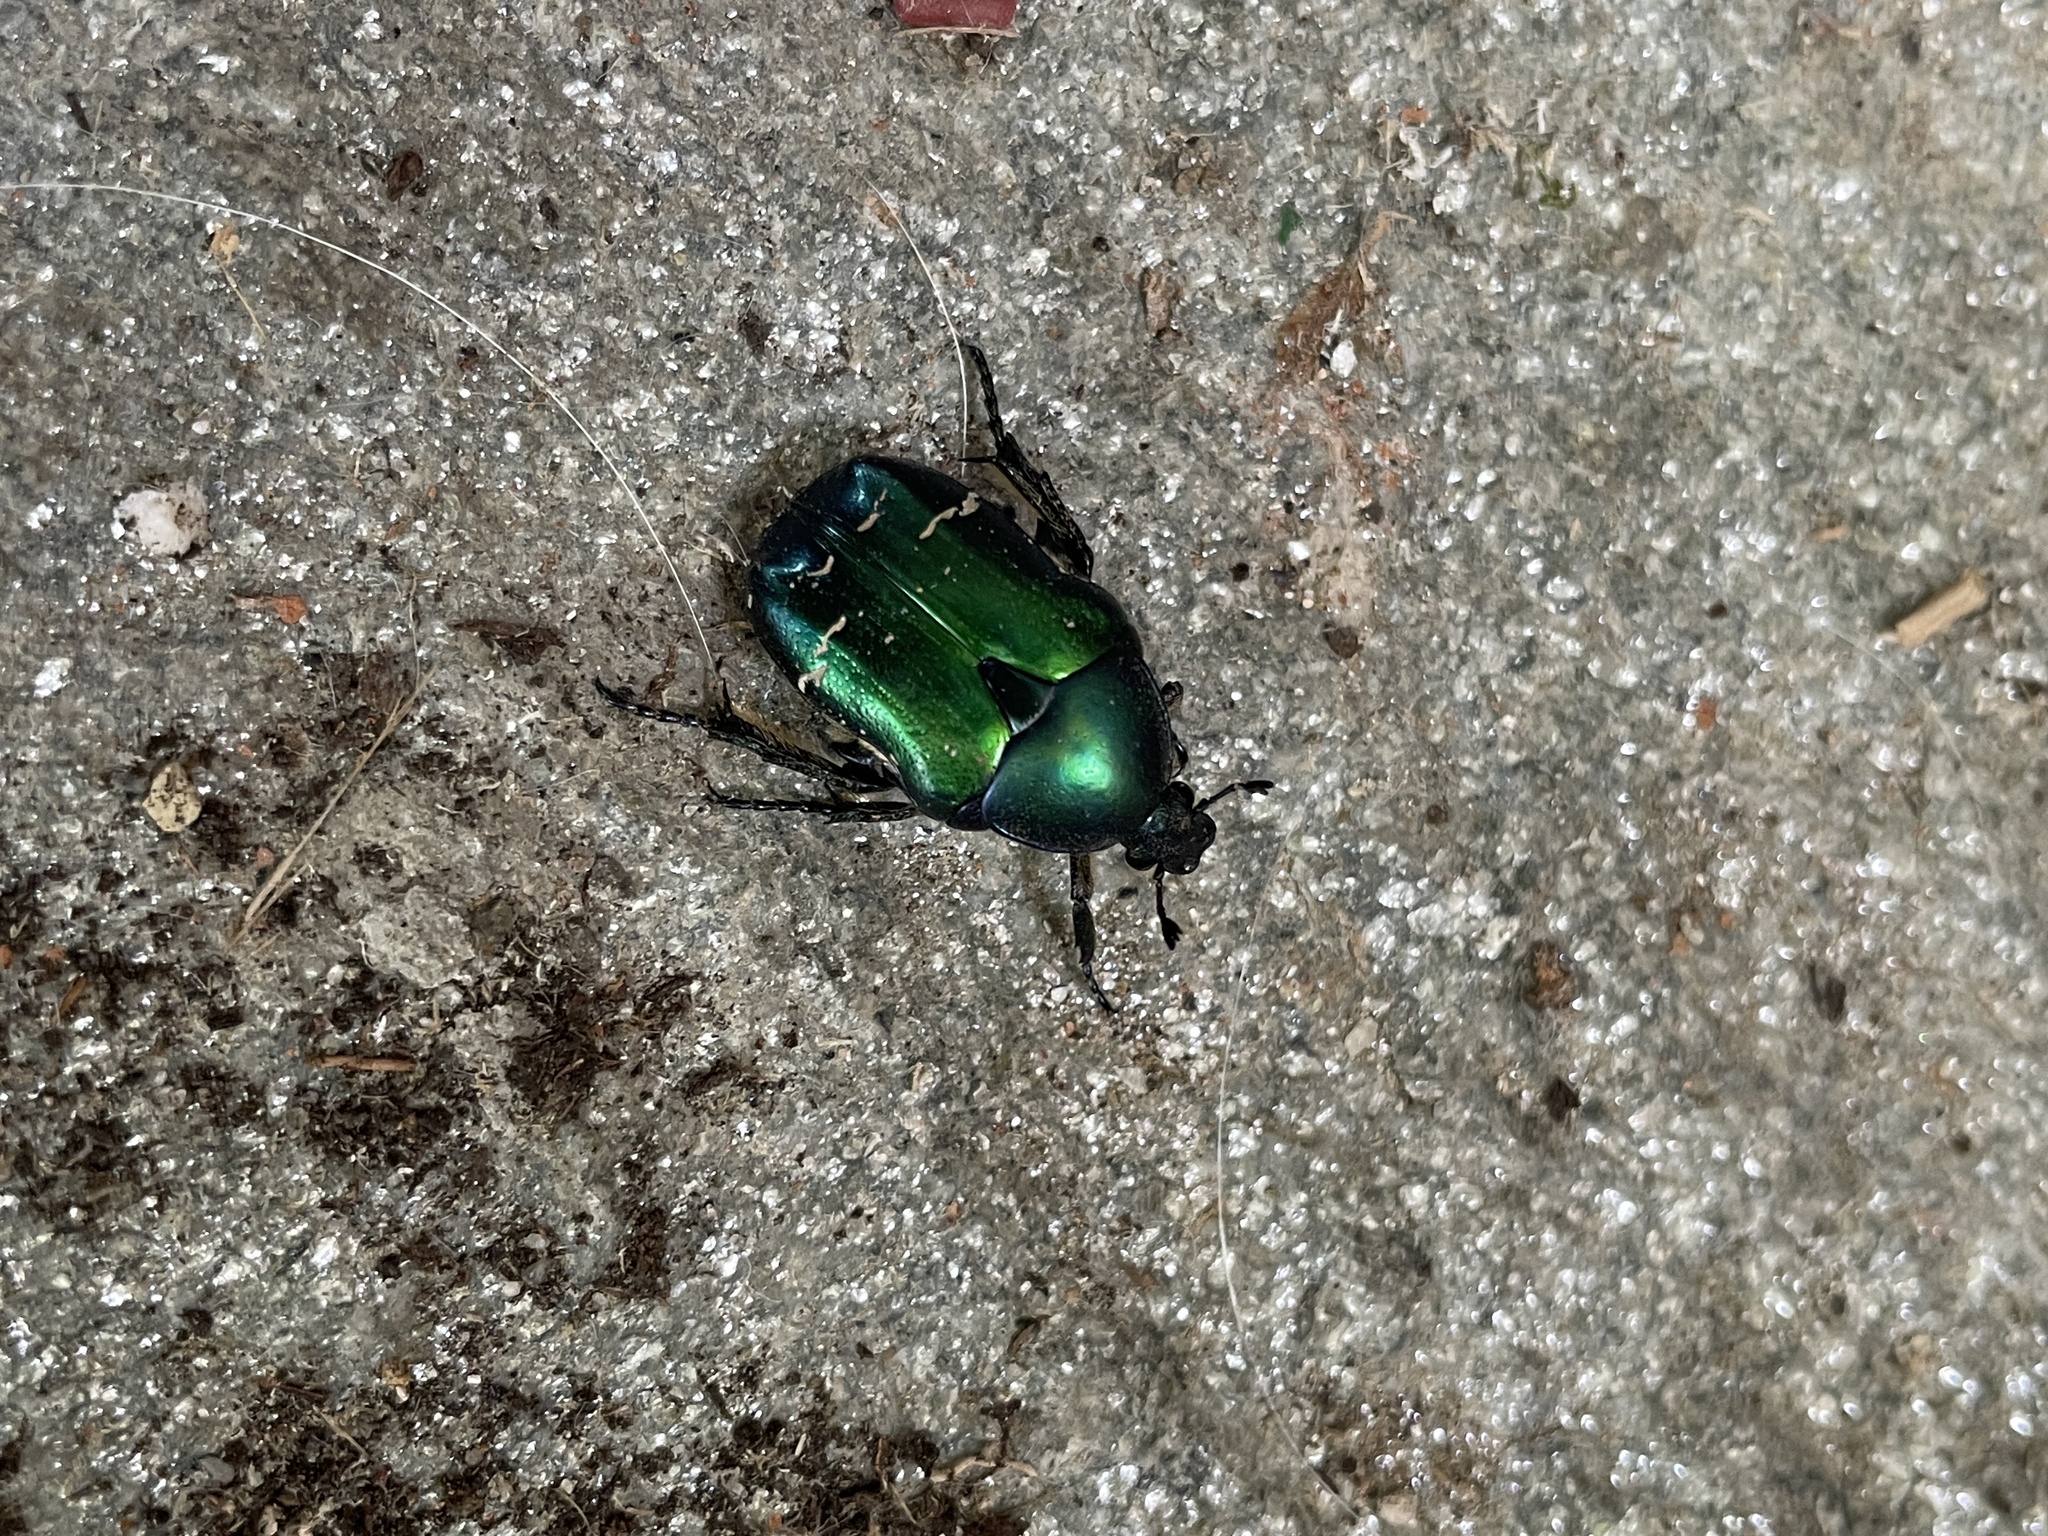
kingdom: Animalia
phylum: Arthropoda
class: Insecta
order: Coleoptera
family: Scarabaeidae
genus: Cetonia
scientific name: Cetonia aurata
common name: Rose chafer
